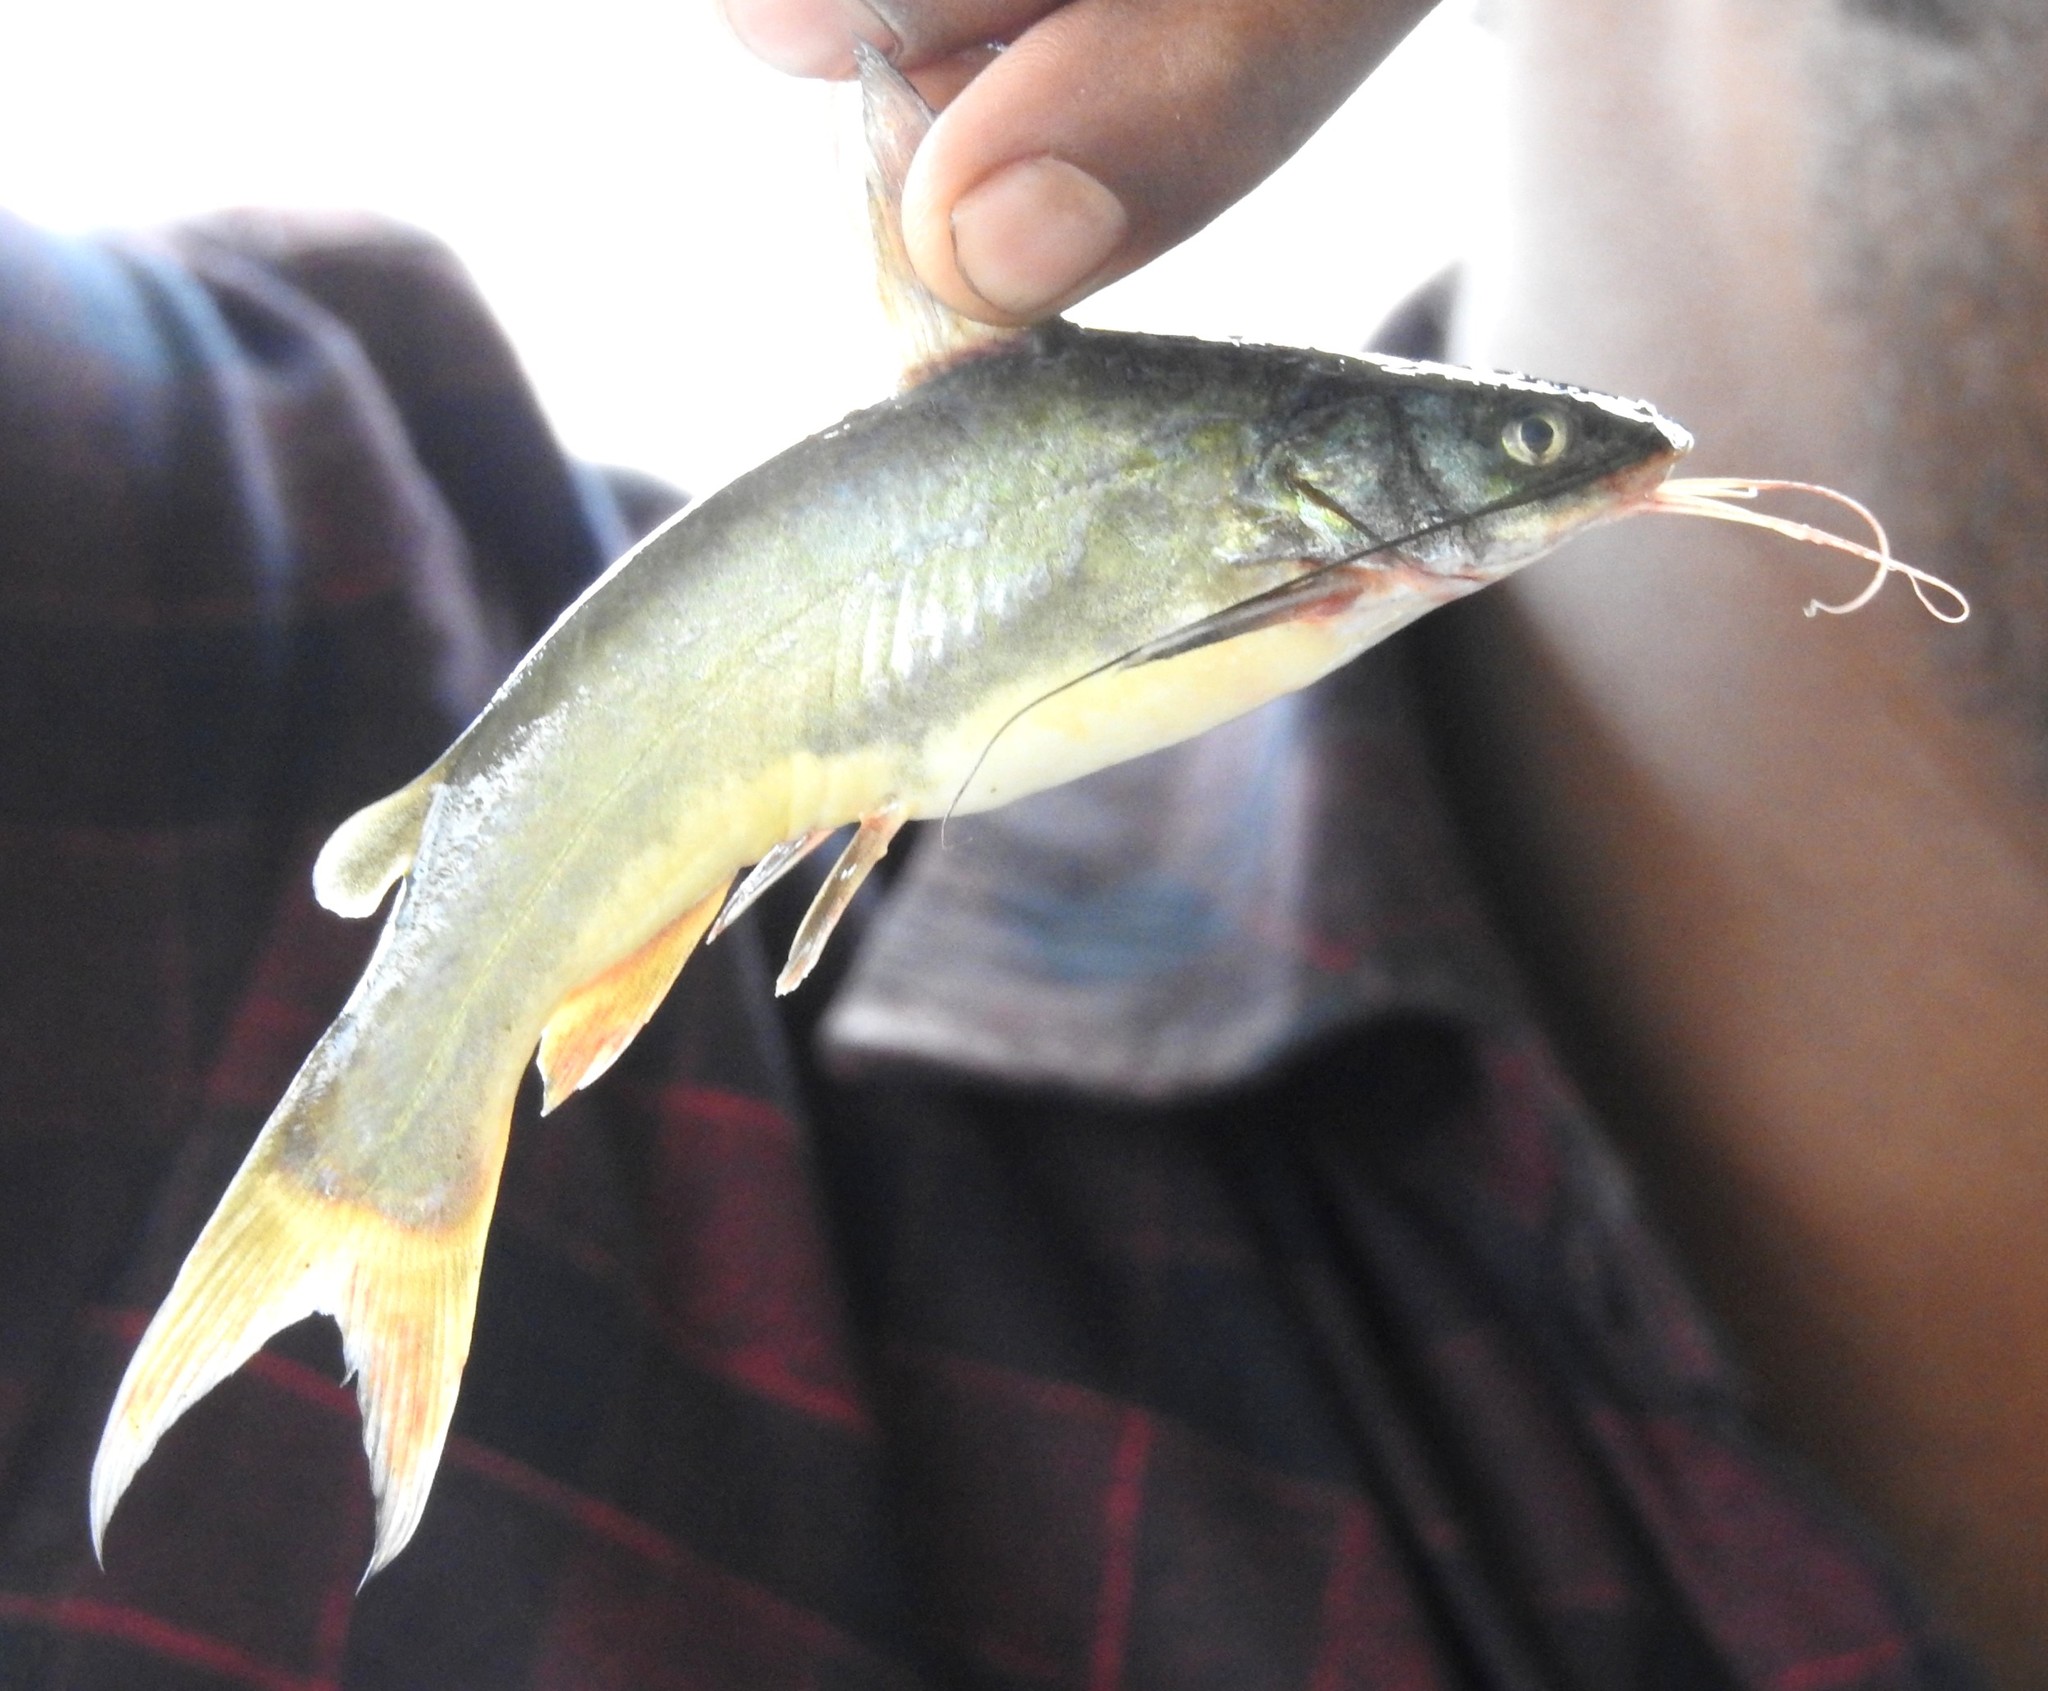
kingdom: Animalia
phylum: Chordata
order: Siluriformes
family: Bagridae
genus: Mystus
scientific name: Mystus gulio
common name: Long whiskers catfish
